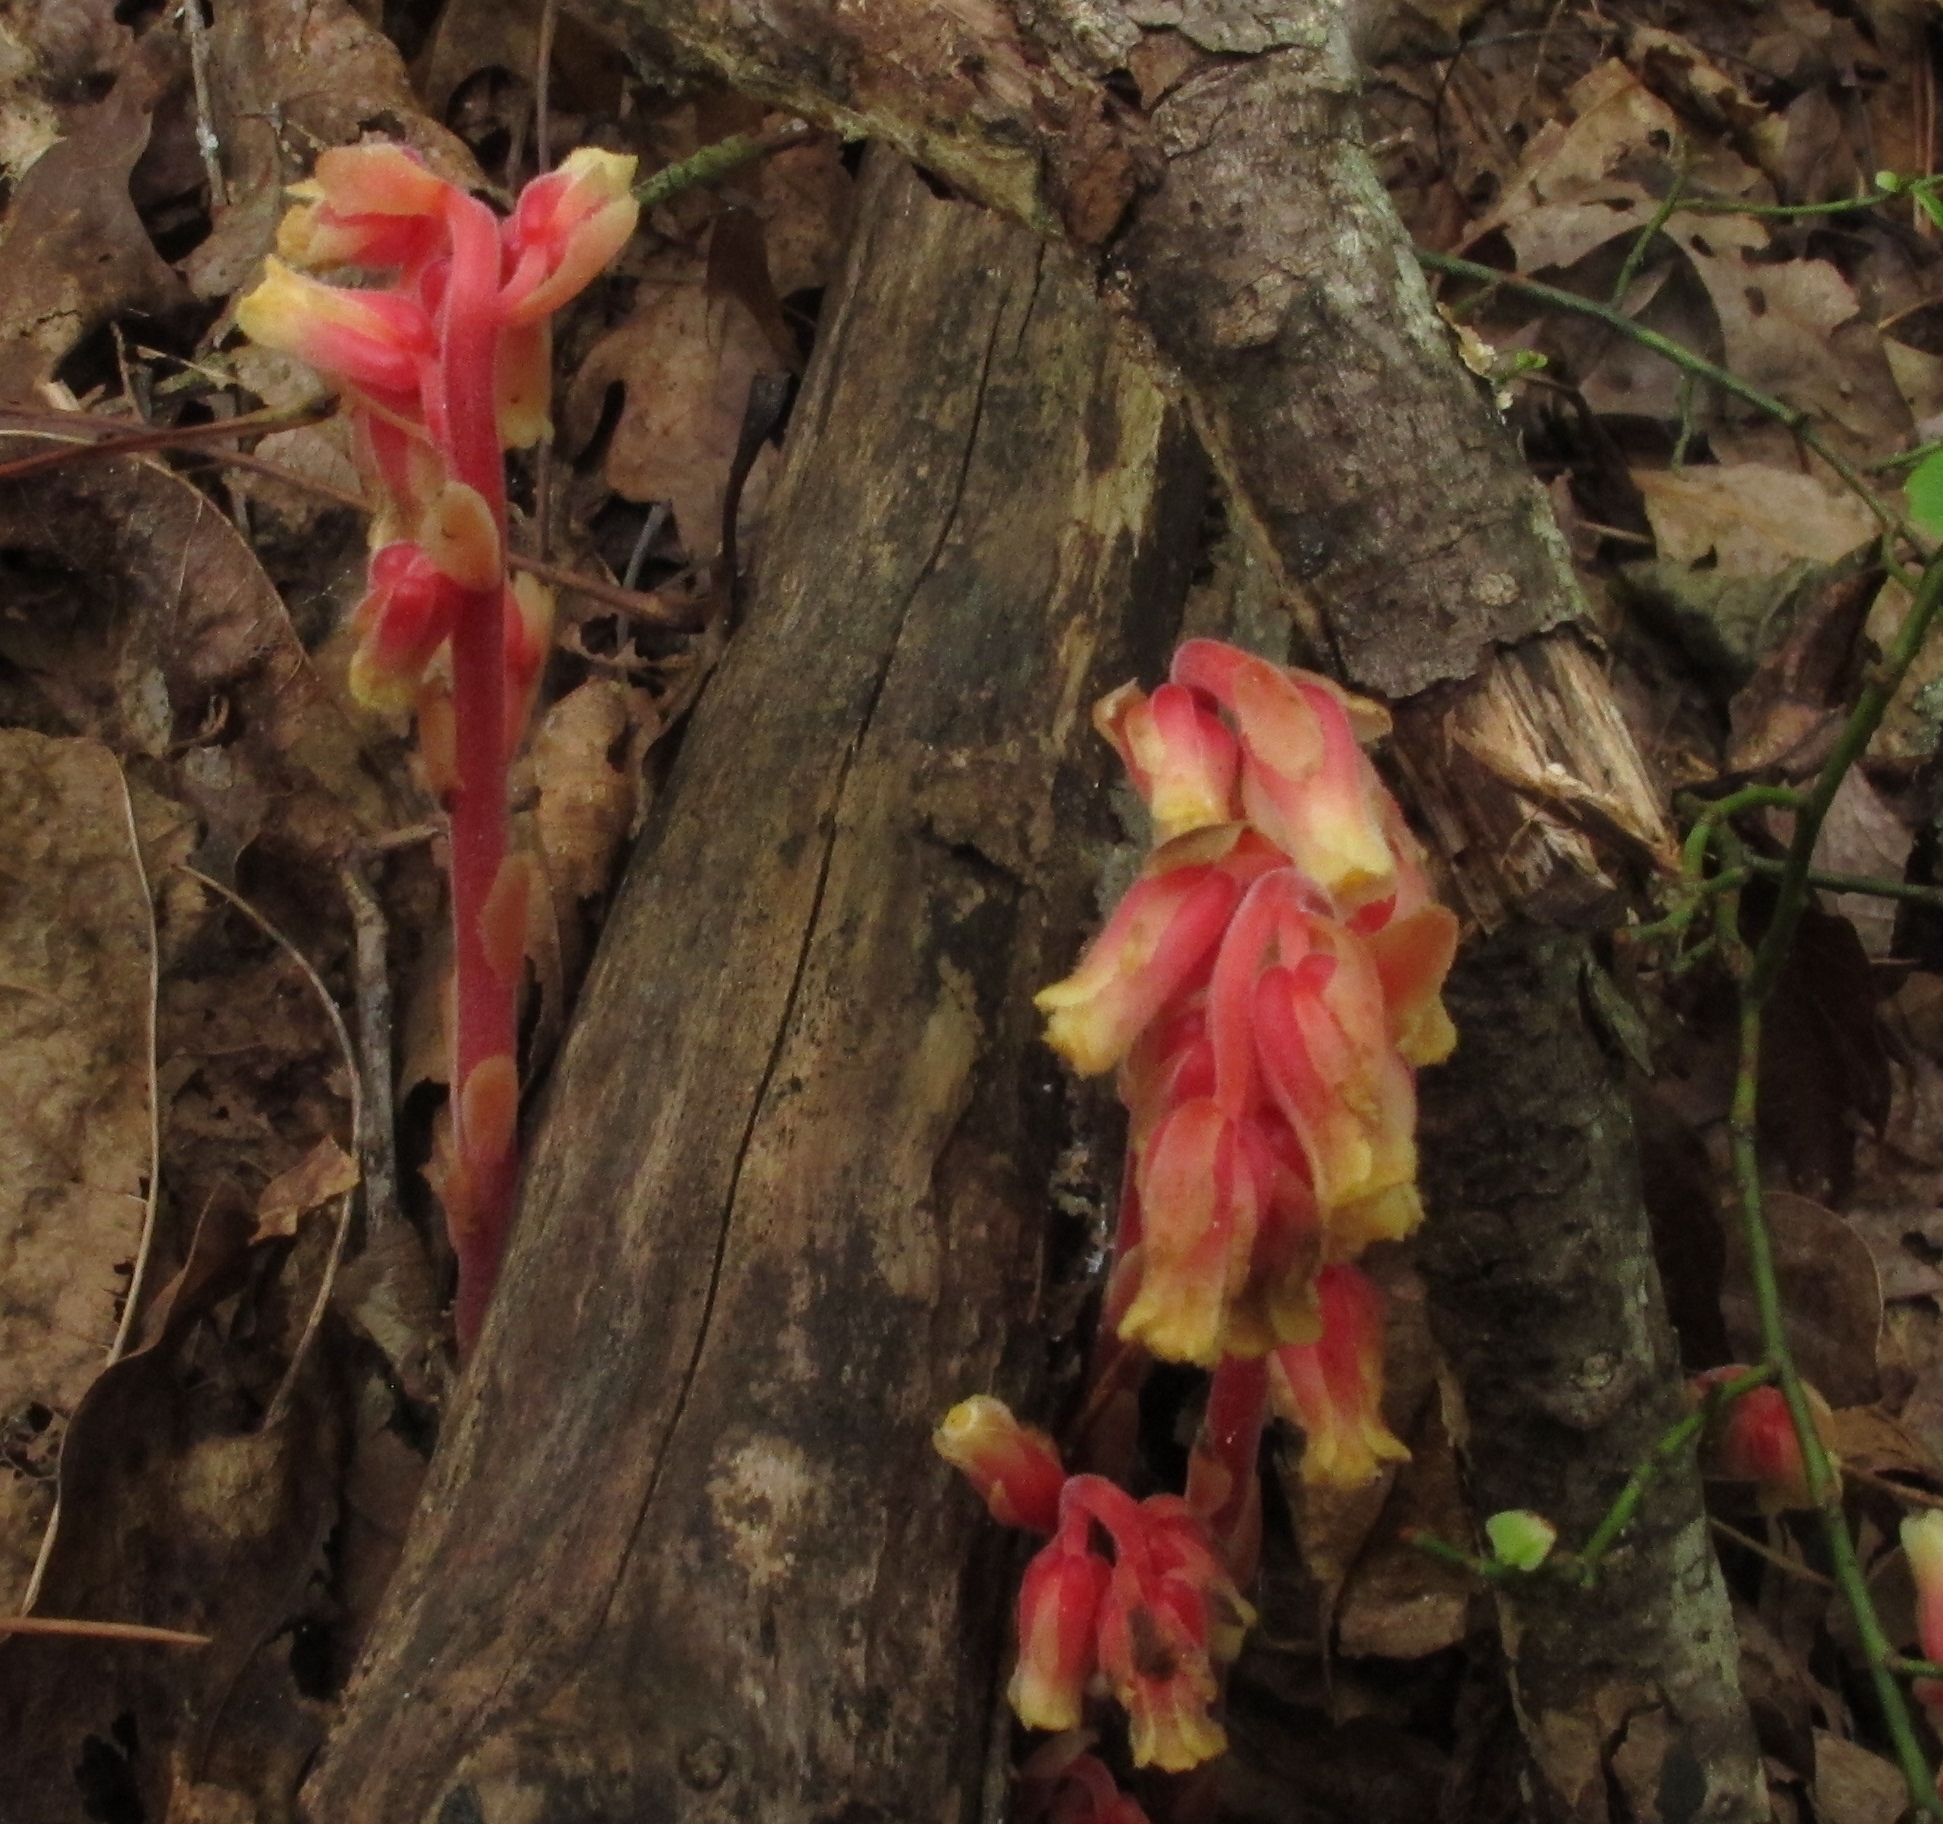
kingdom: Plantae
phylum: Tracheophyta
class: Magnoliopsida
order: Ericales
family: Ericaceae
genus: Hypopitys
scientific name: Hypopitys monotropa
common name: Yellow bird's-nest
